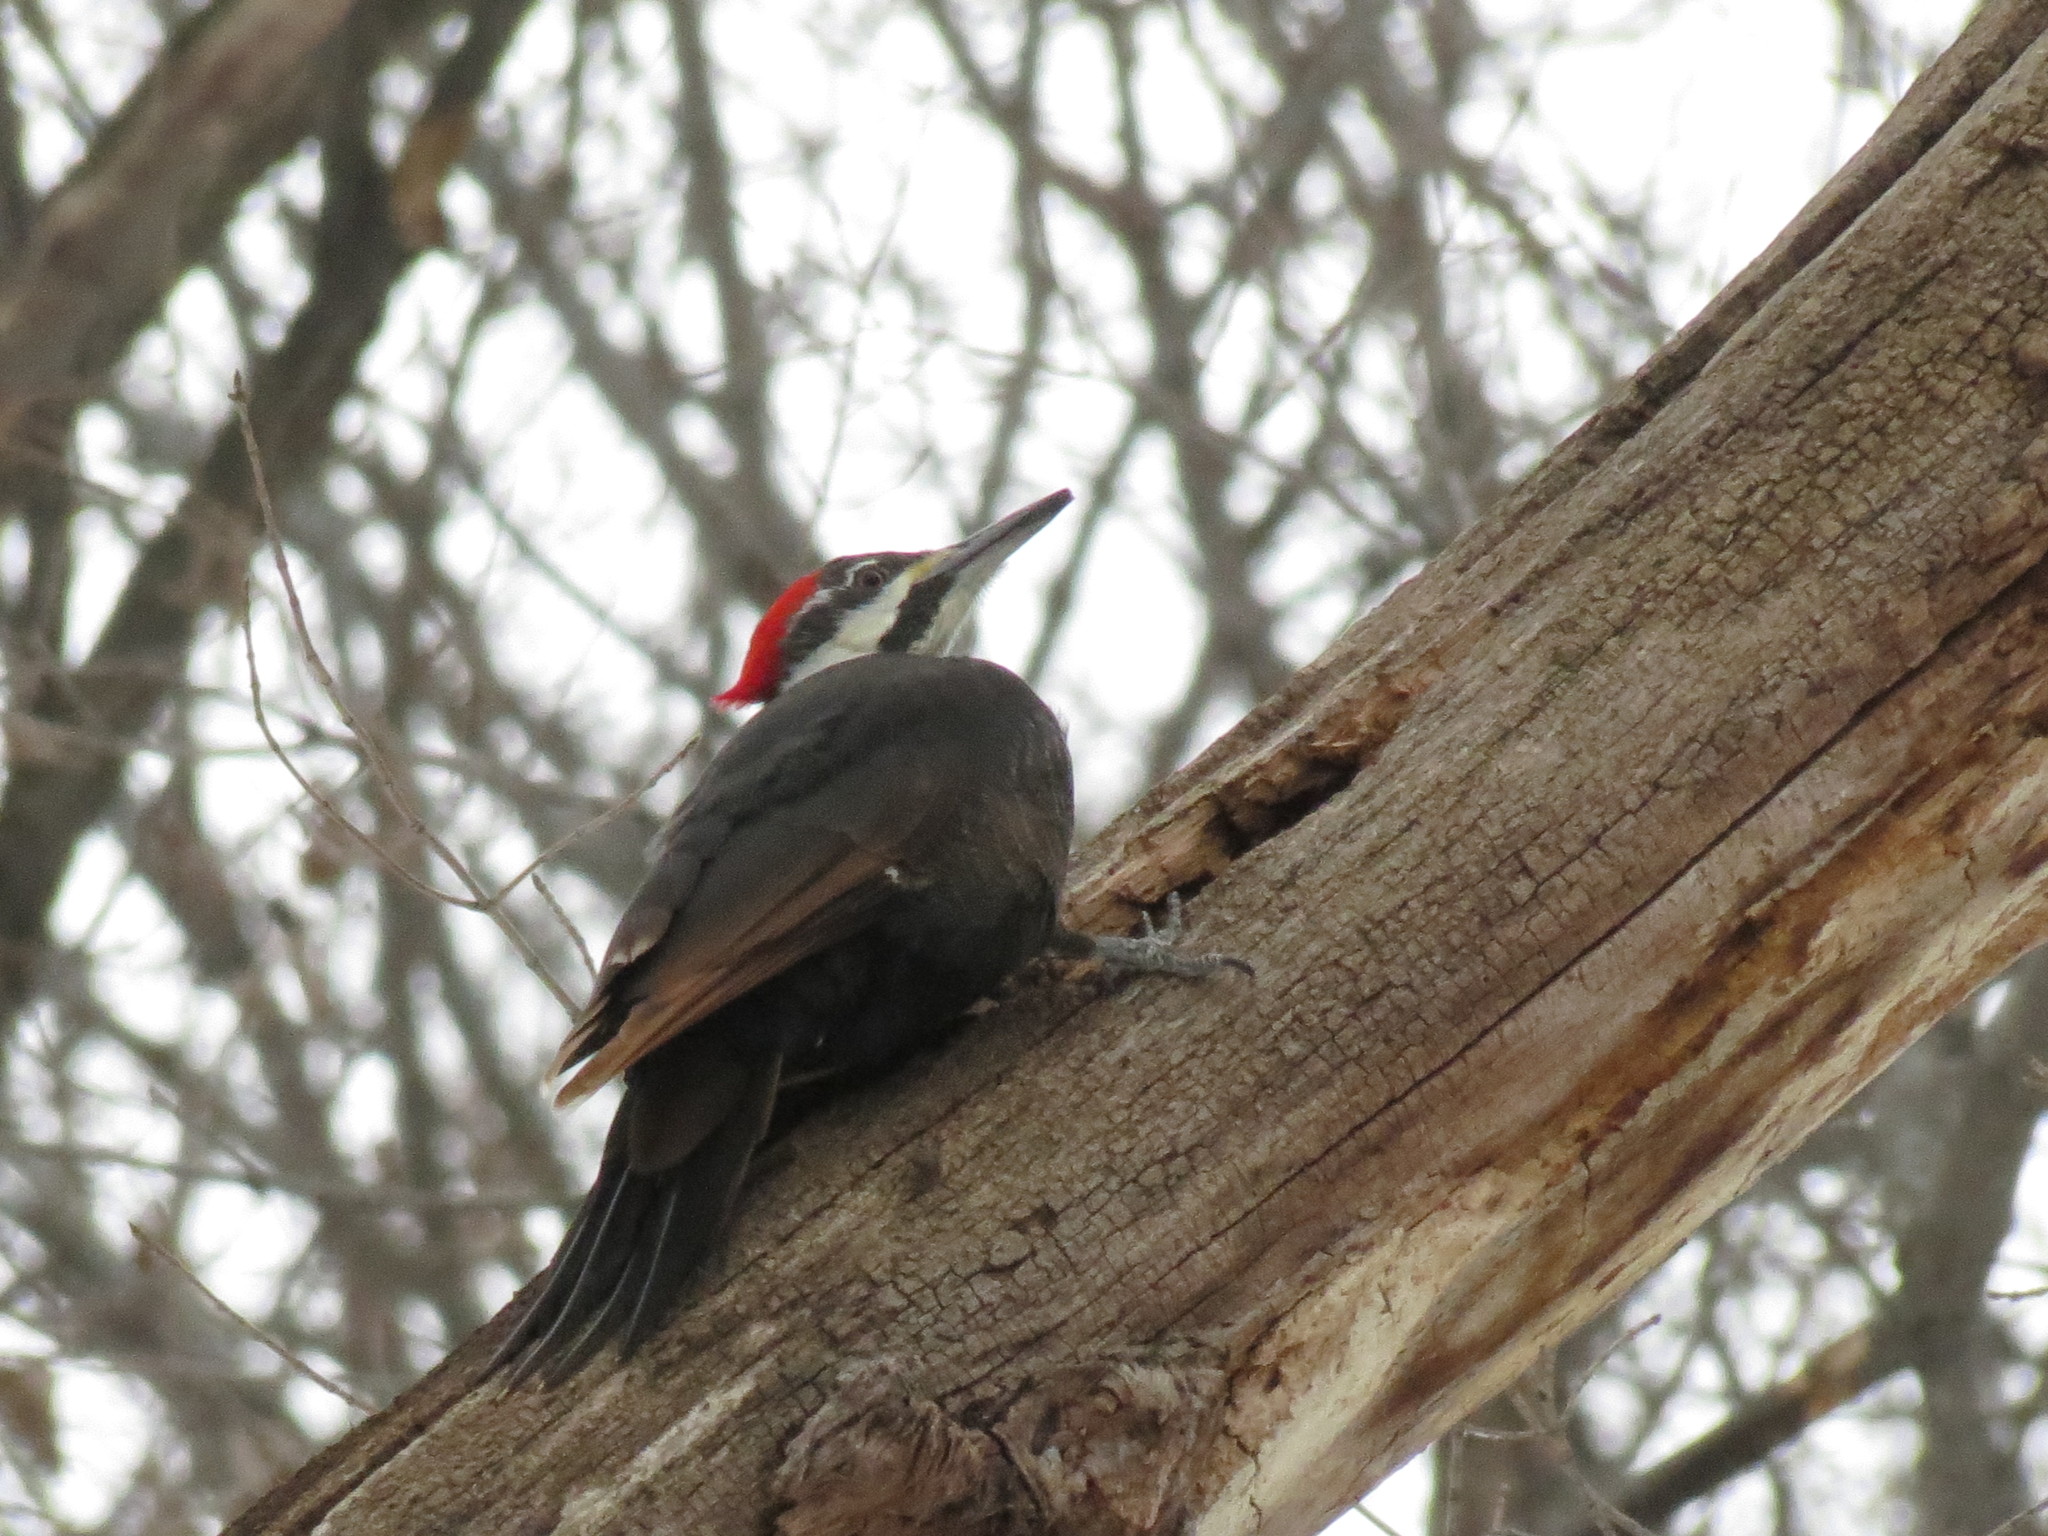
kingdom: Animalia
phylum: Chordata
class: Aves
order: Piciformes
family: Picidae
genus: Dryocopus
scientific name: Dryocopus pileatus
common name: Pileated woodpecker
